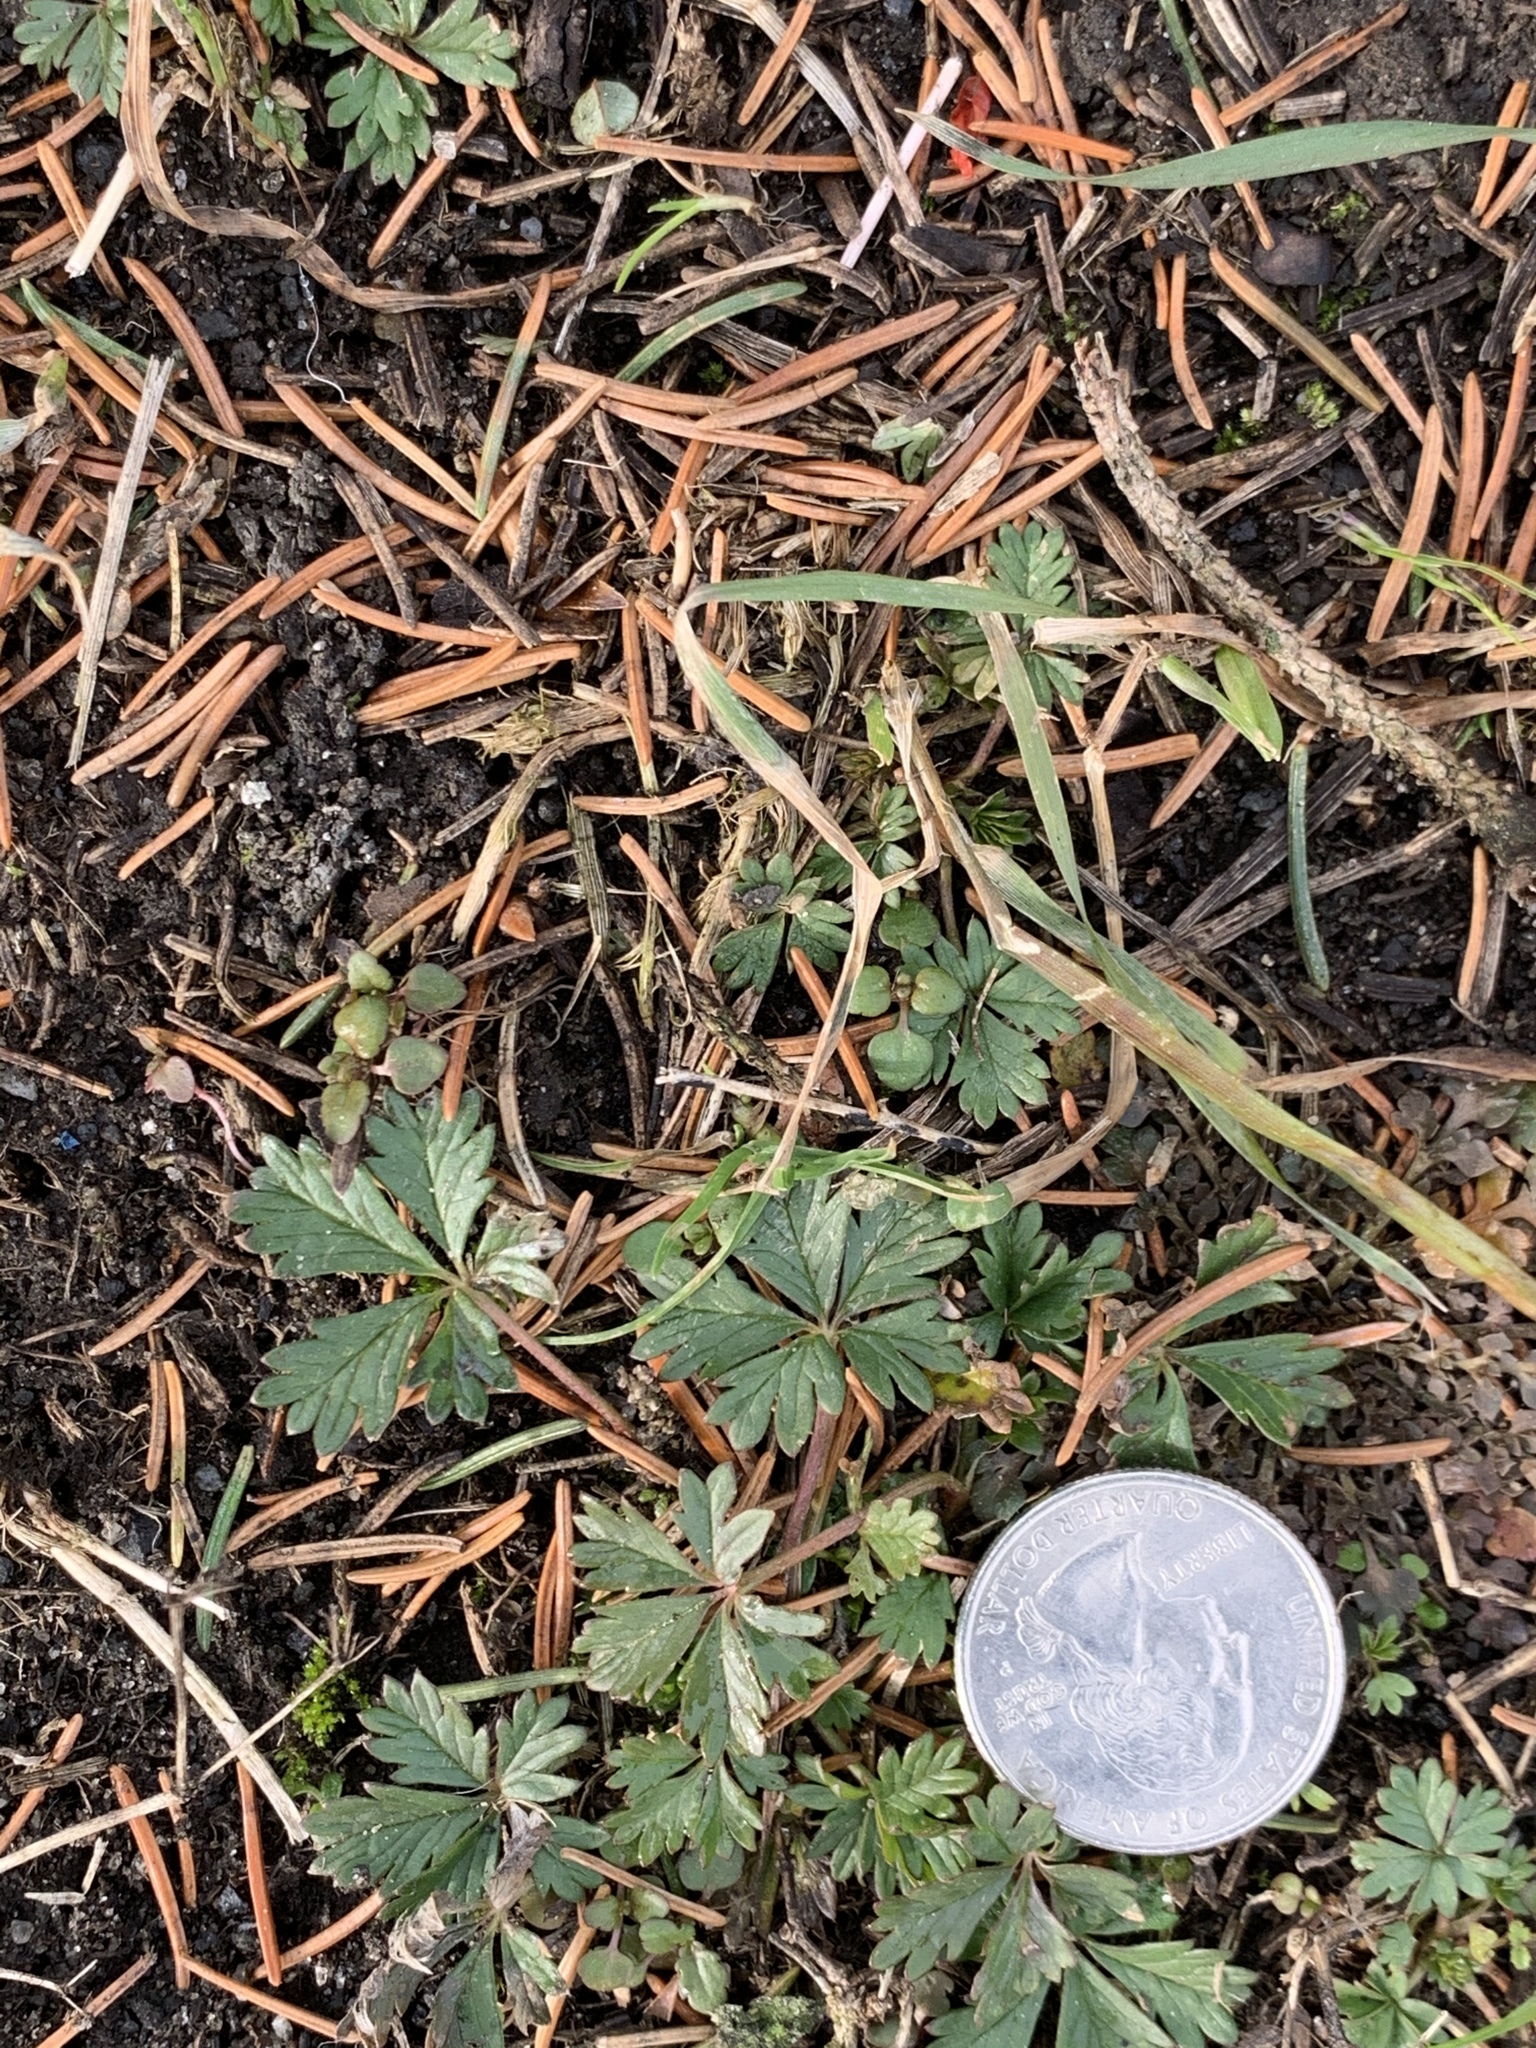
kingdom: Plantae
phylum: Tracheophyta
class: Magnoliopsida
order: Rosales
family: Rosaceae
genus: Potentilla
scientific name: Potentilla argentea
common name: Hoary cinquefoil
